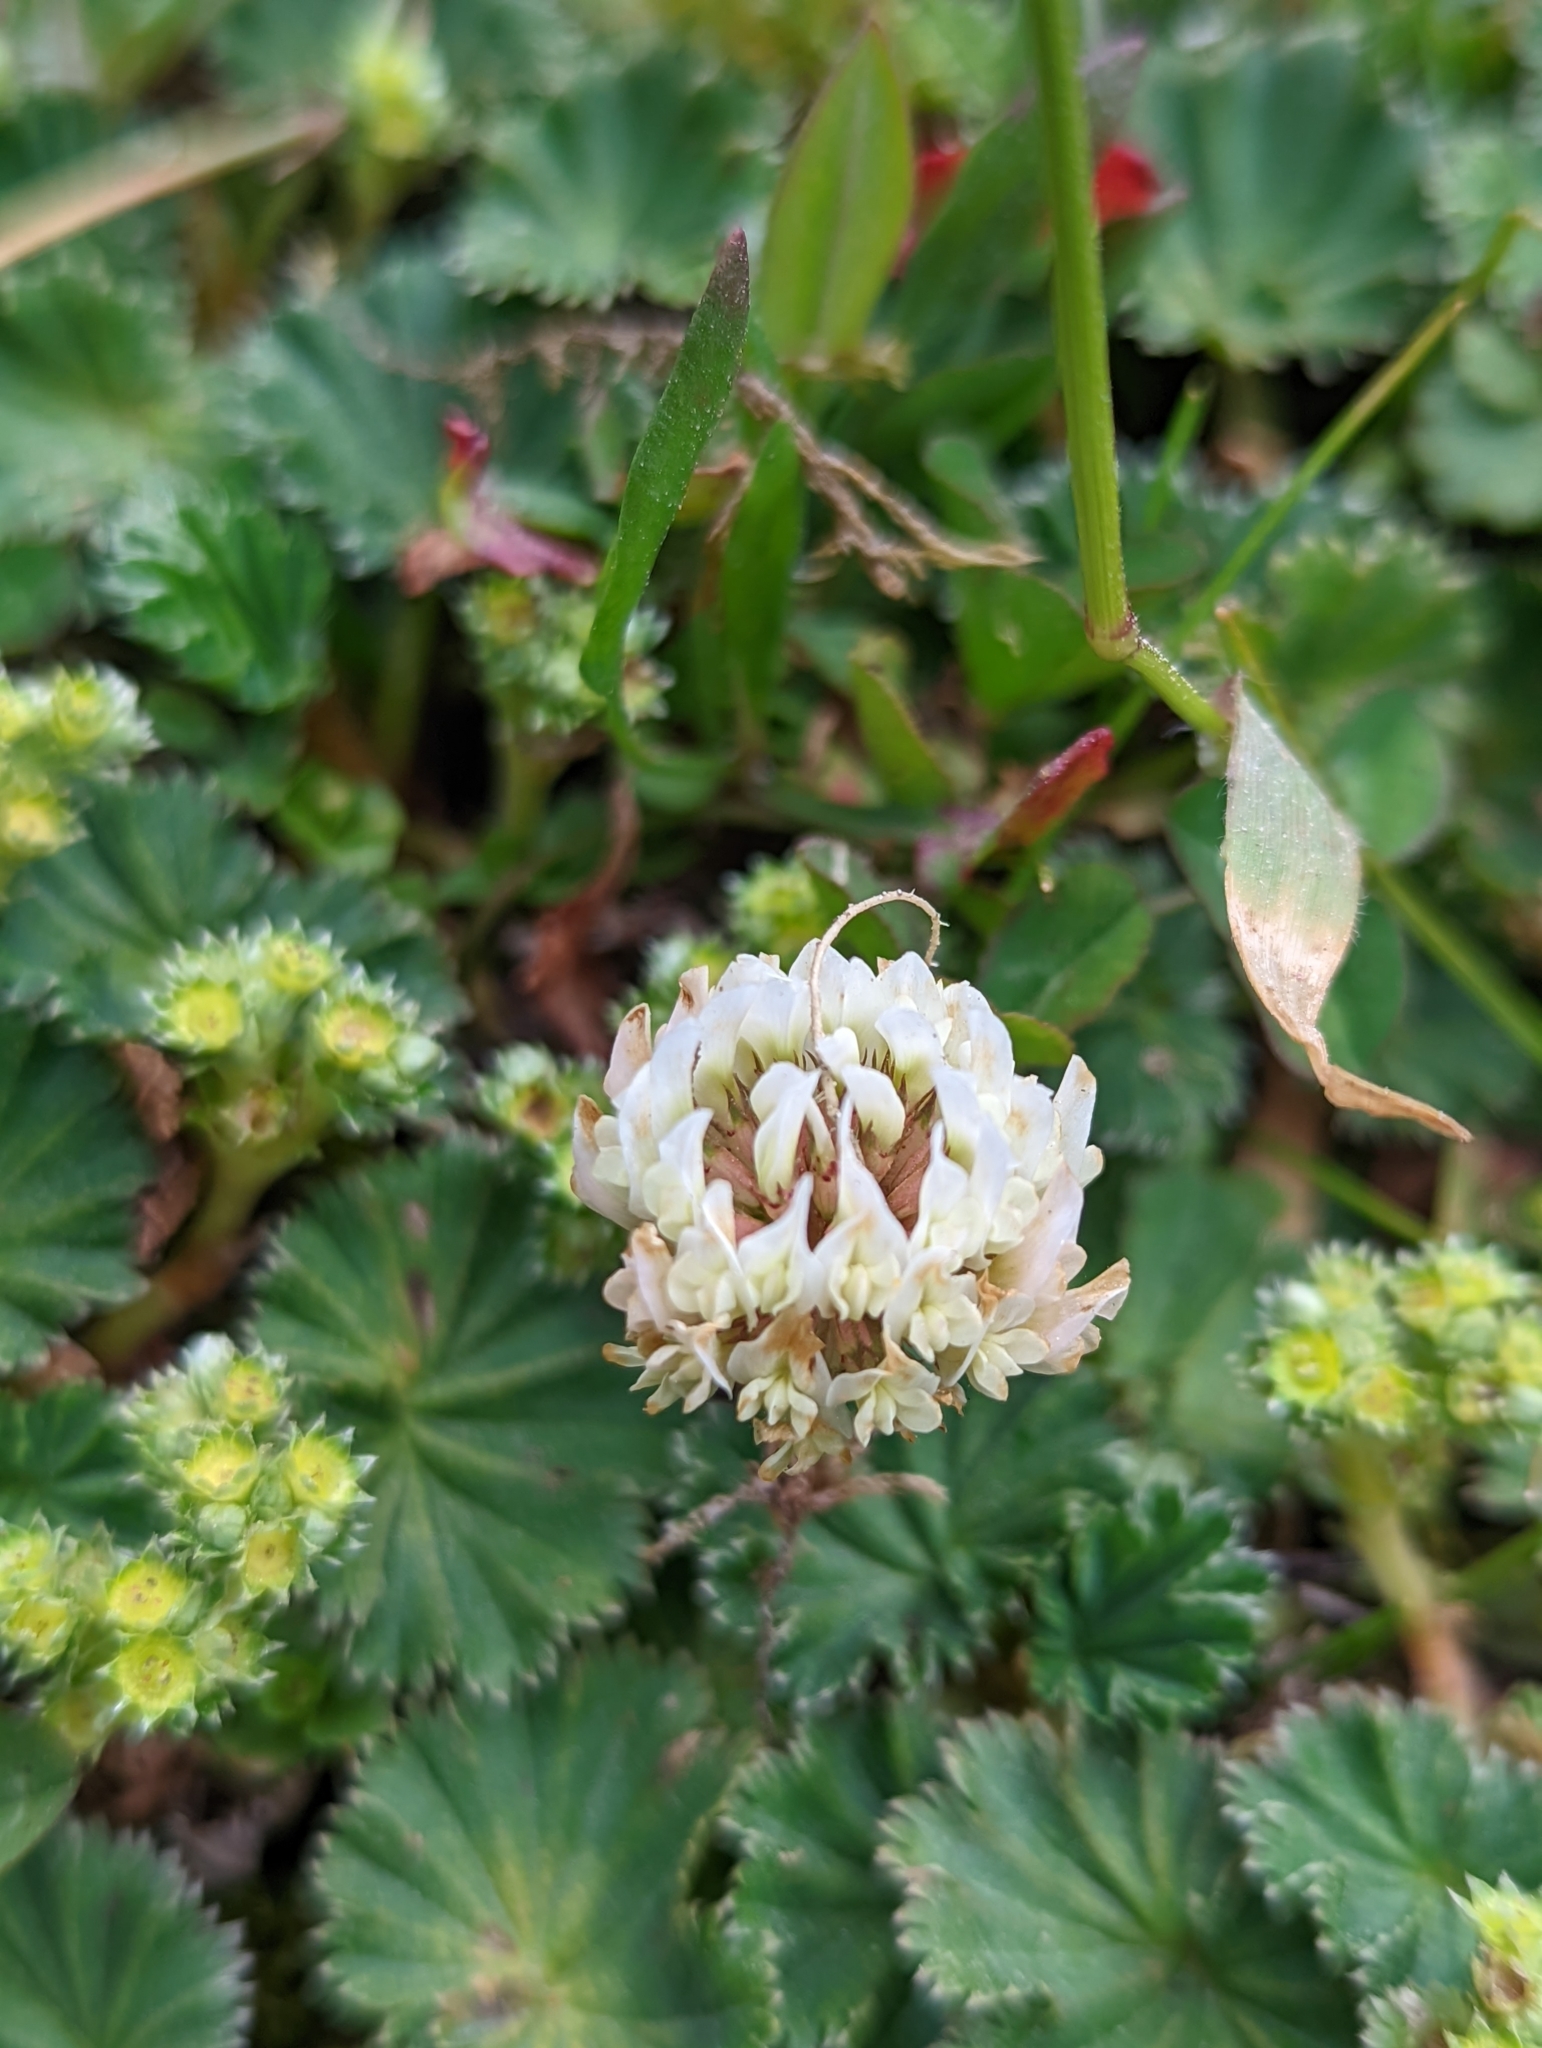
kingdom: Plantae
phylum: Tracheophyta
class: Magnoliopsida
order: Fabales
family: Fabaceae
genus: Trifolium
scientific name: Trifolium repens
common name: White clover
